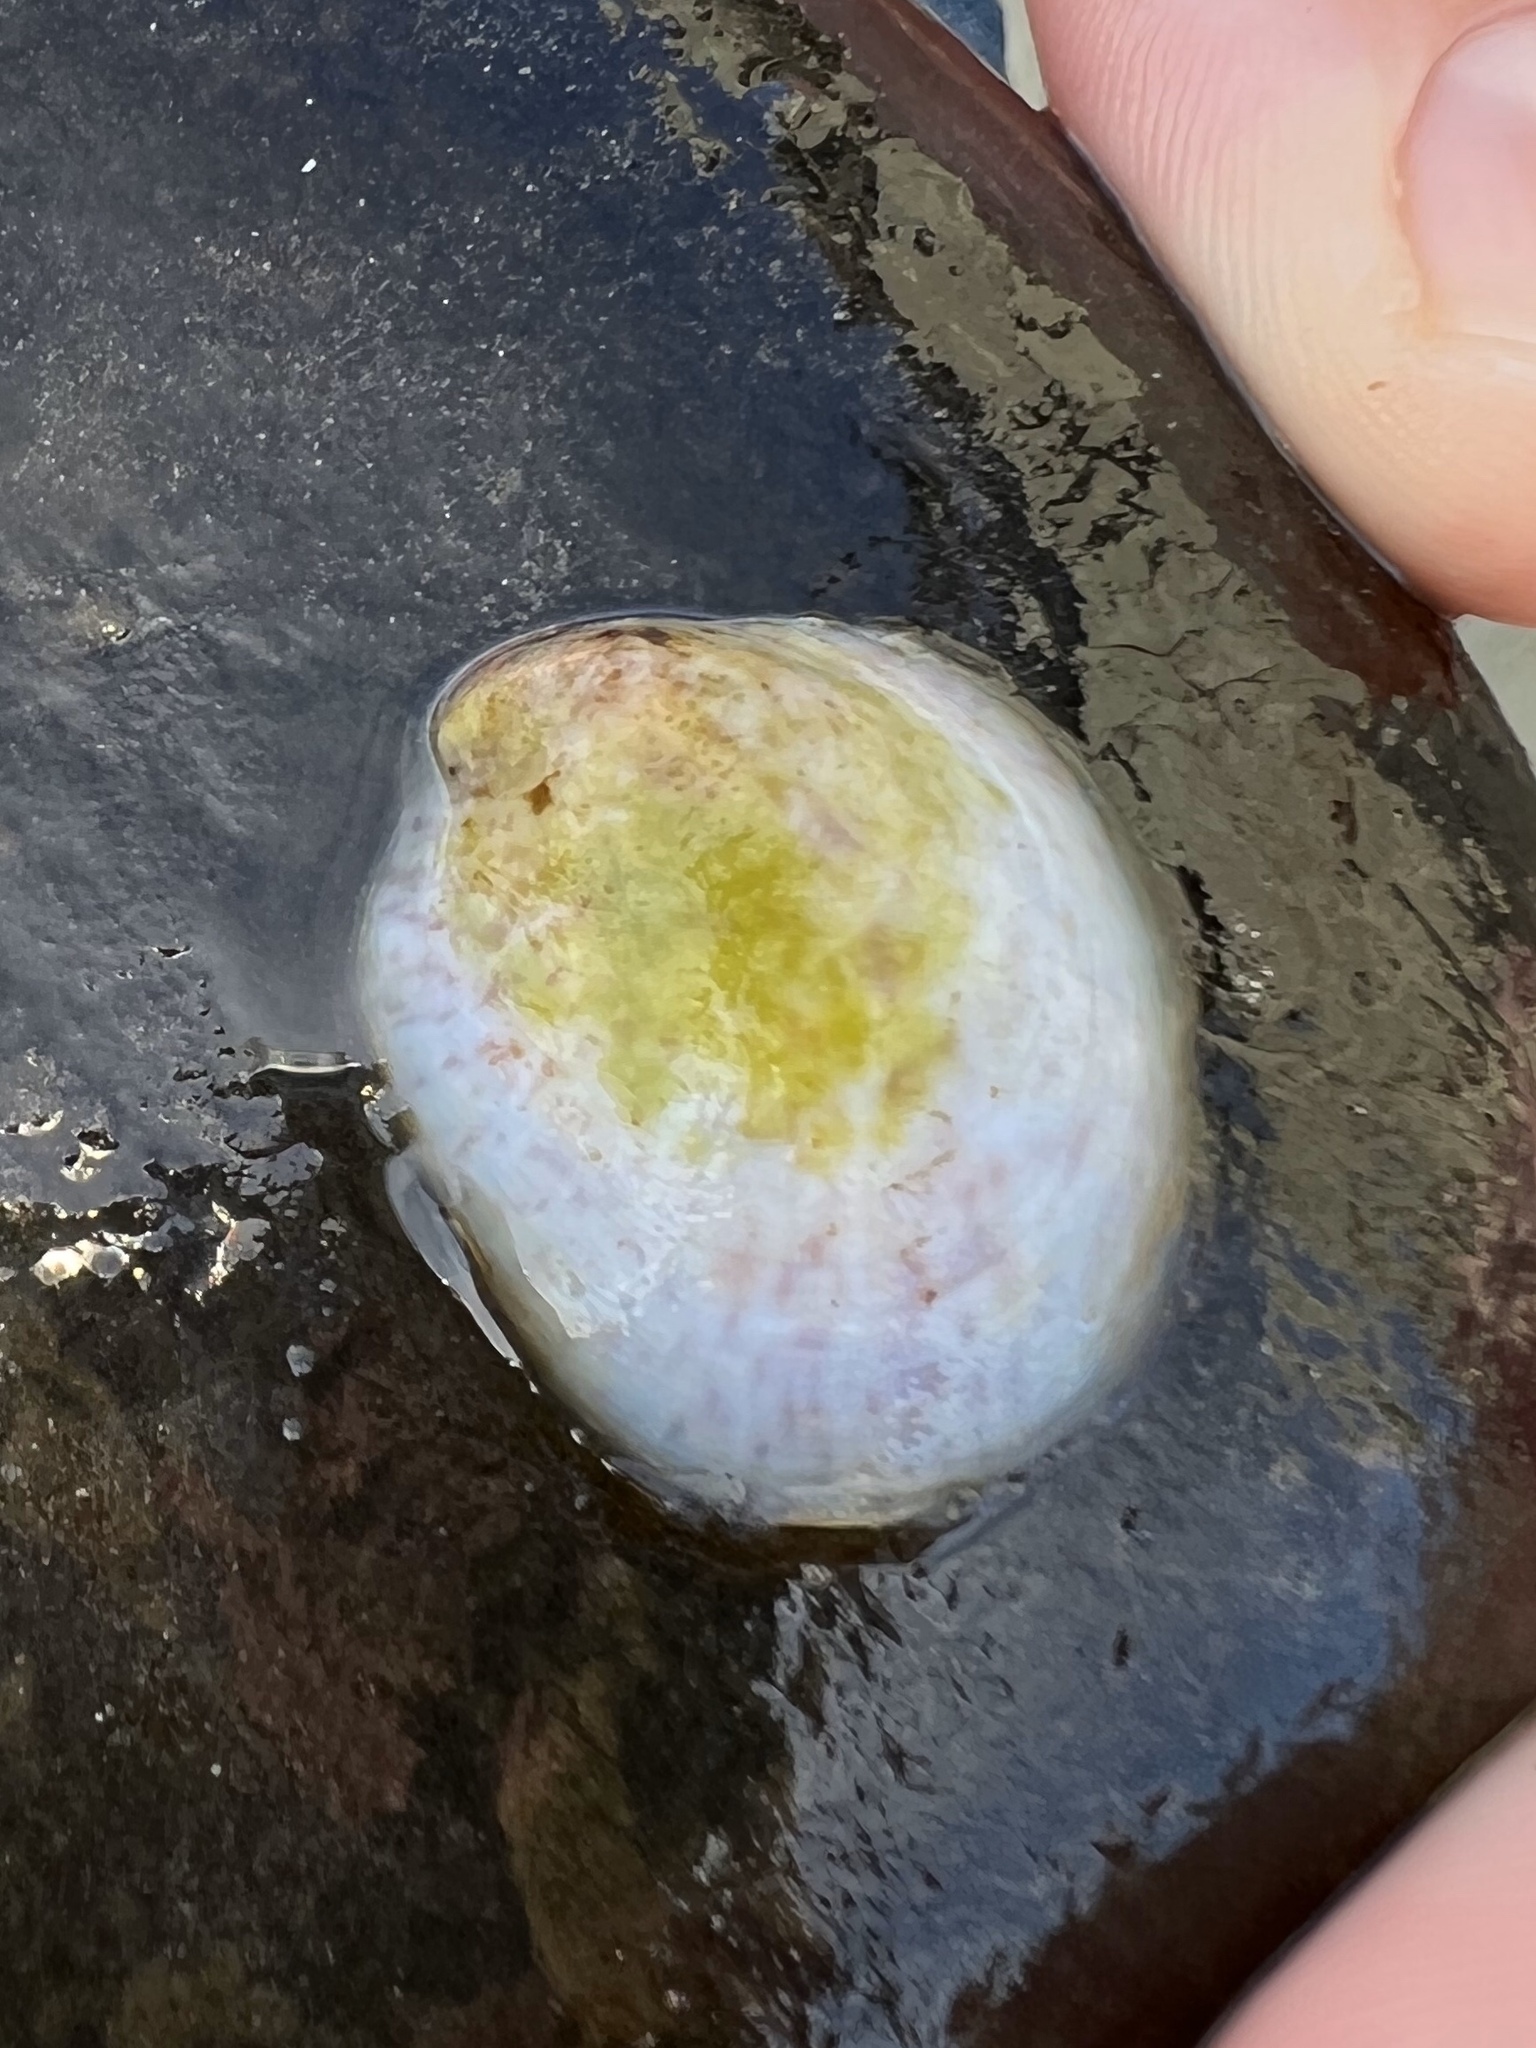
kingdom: Animalia
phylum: Mollusca
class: Gastropoda
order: Littorinimorpha
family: Calyptraeidae
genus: Crepidula
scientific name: Crepidula fornicata
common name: Slipper limpet
